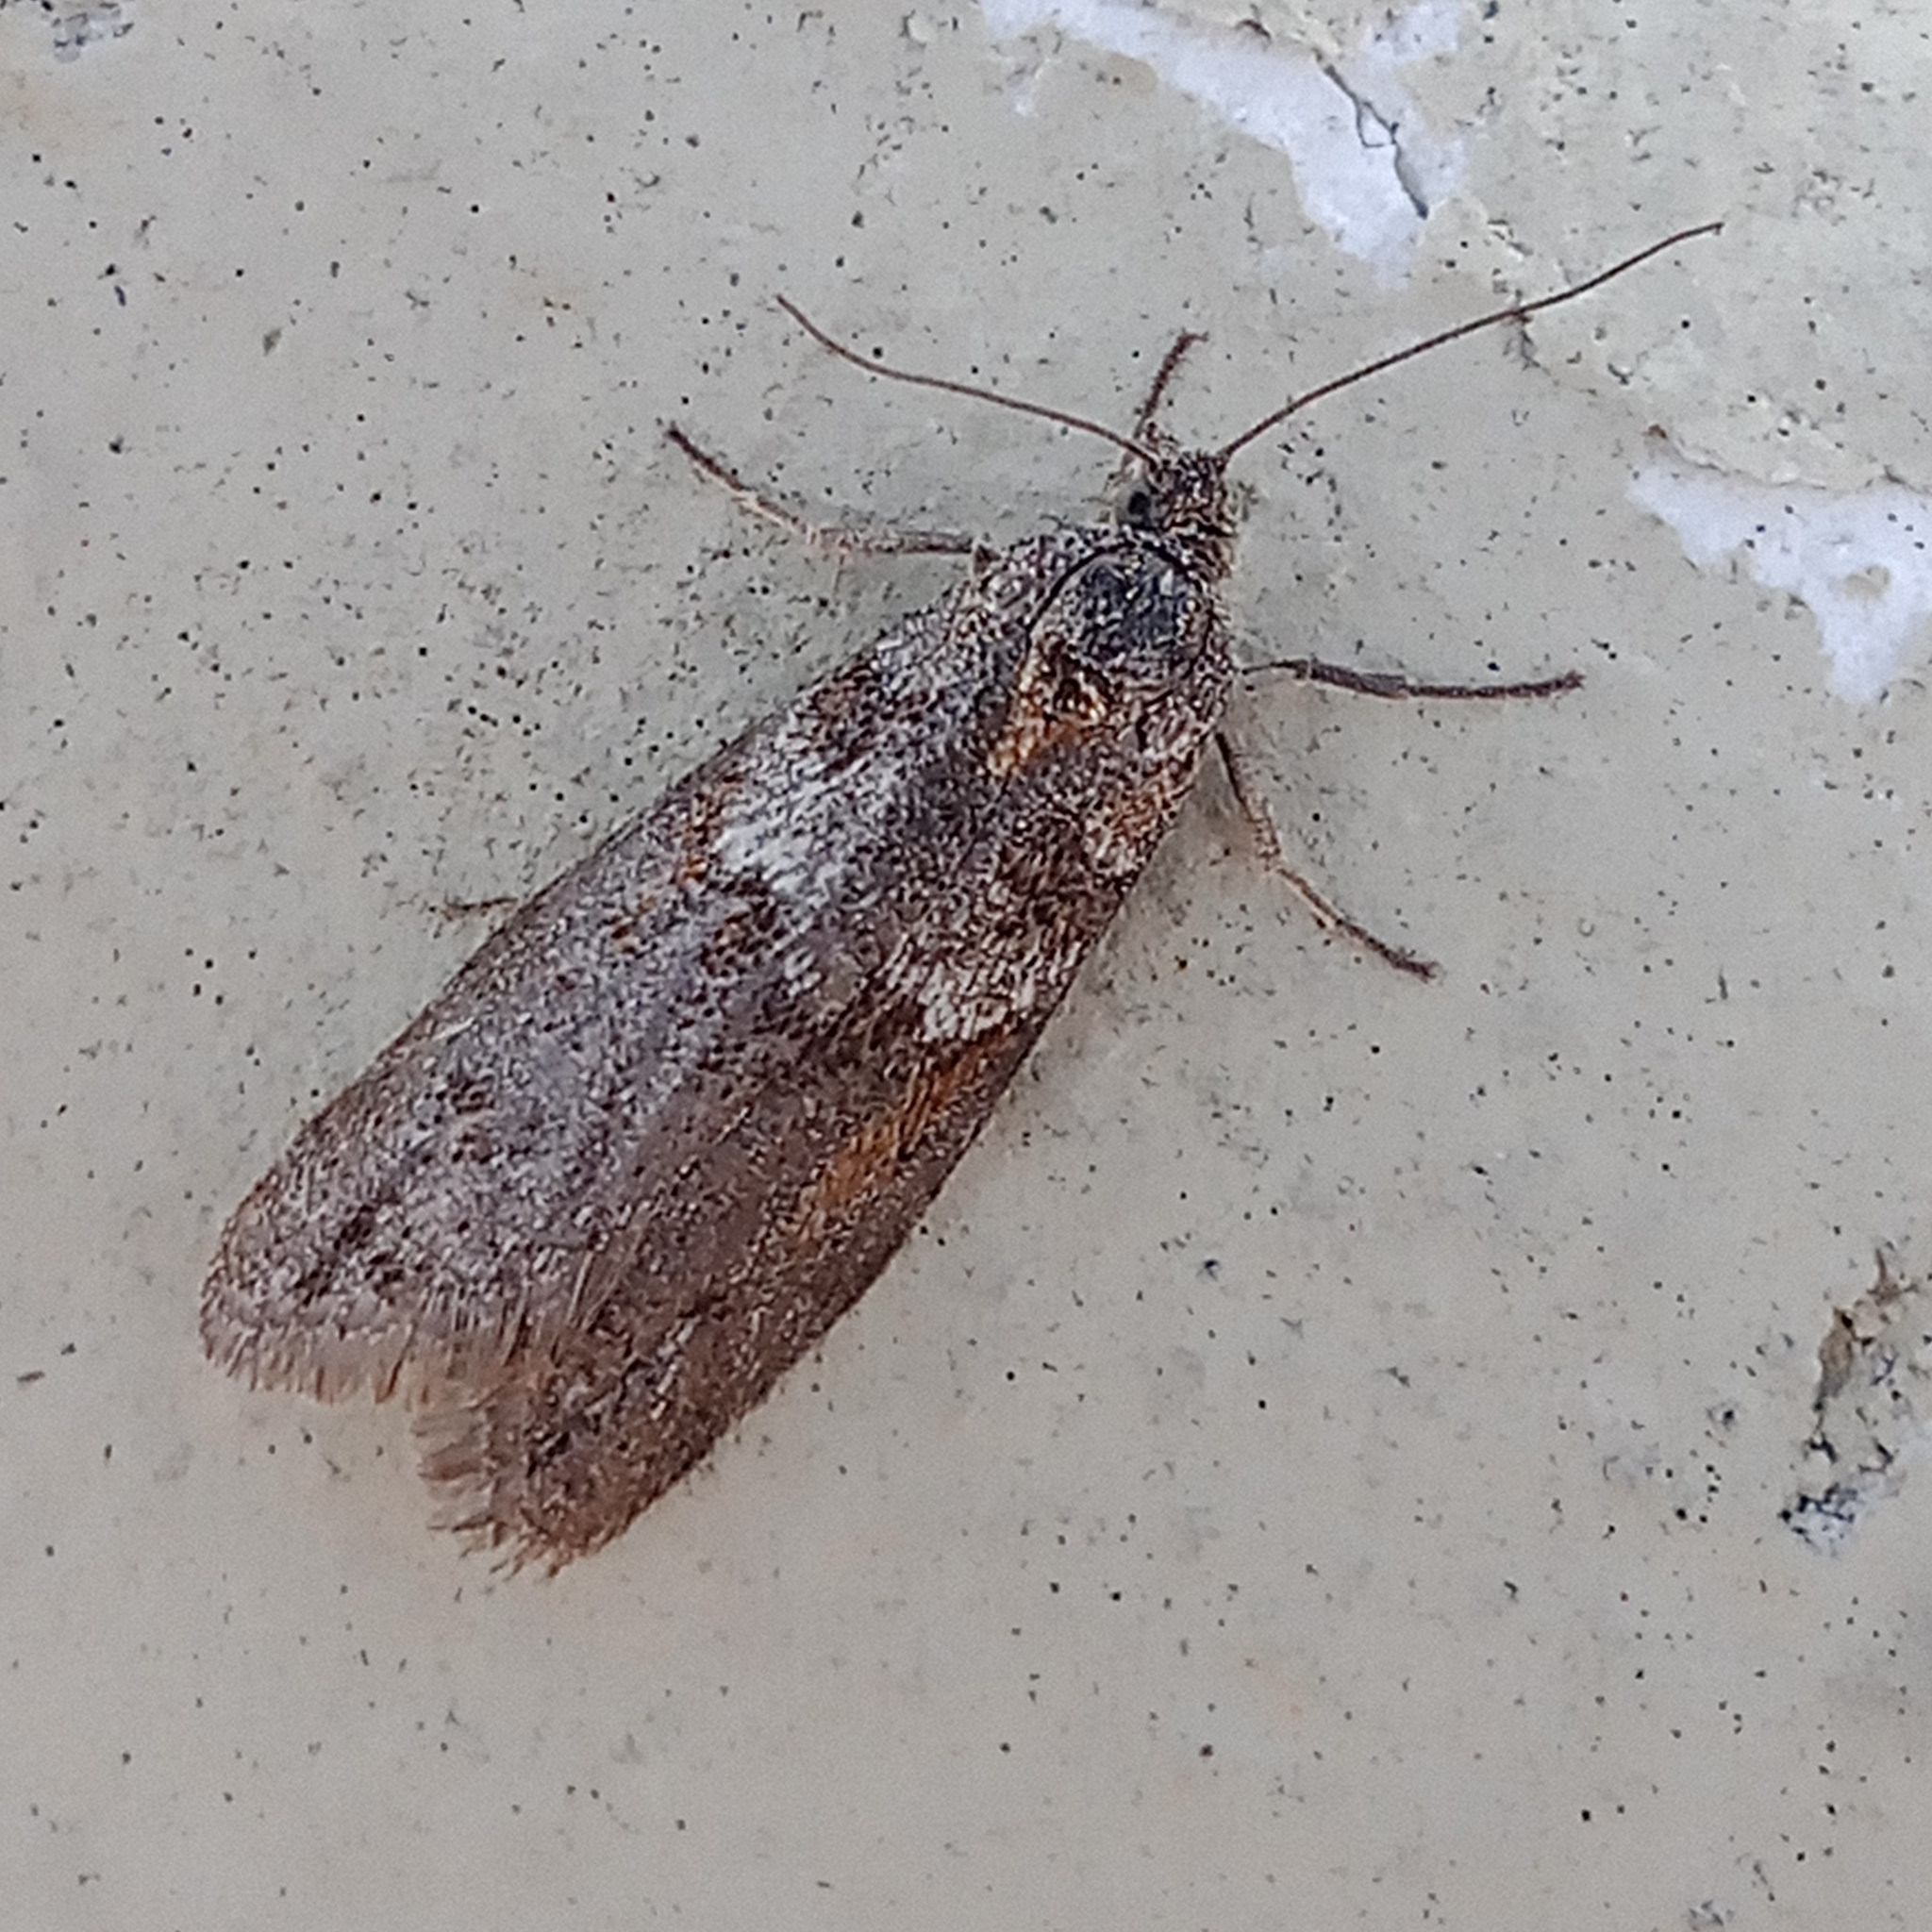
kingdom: Animalia
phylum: Arthropoda
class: Insecta
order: Lepidoptera
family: Tortricidae
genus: Tortricodes
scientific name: Tortricodes alternella
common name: Winter shade
